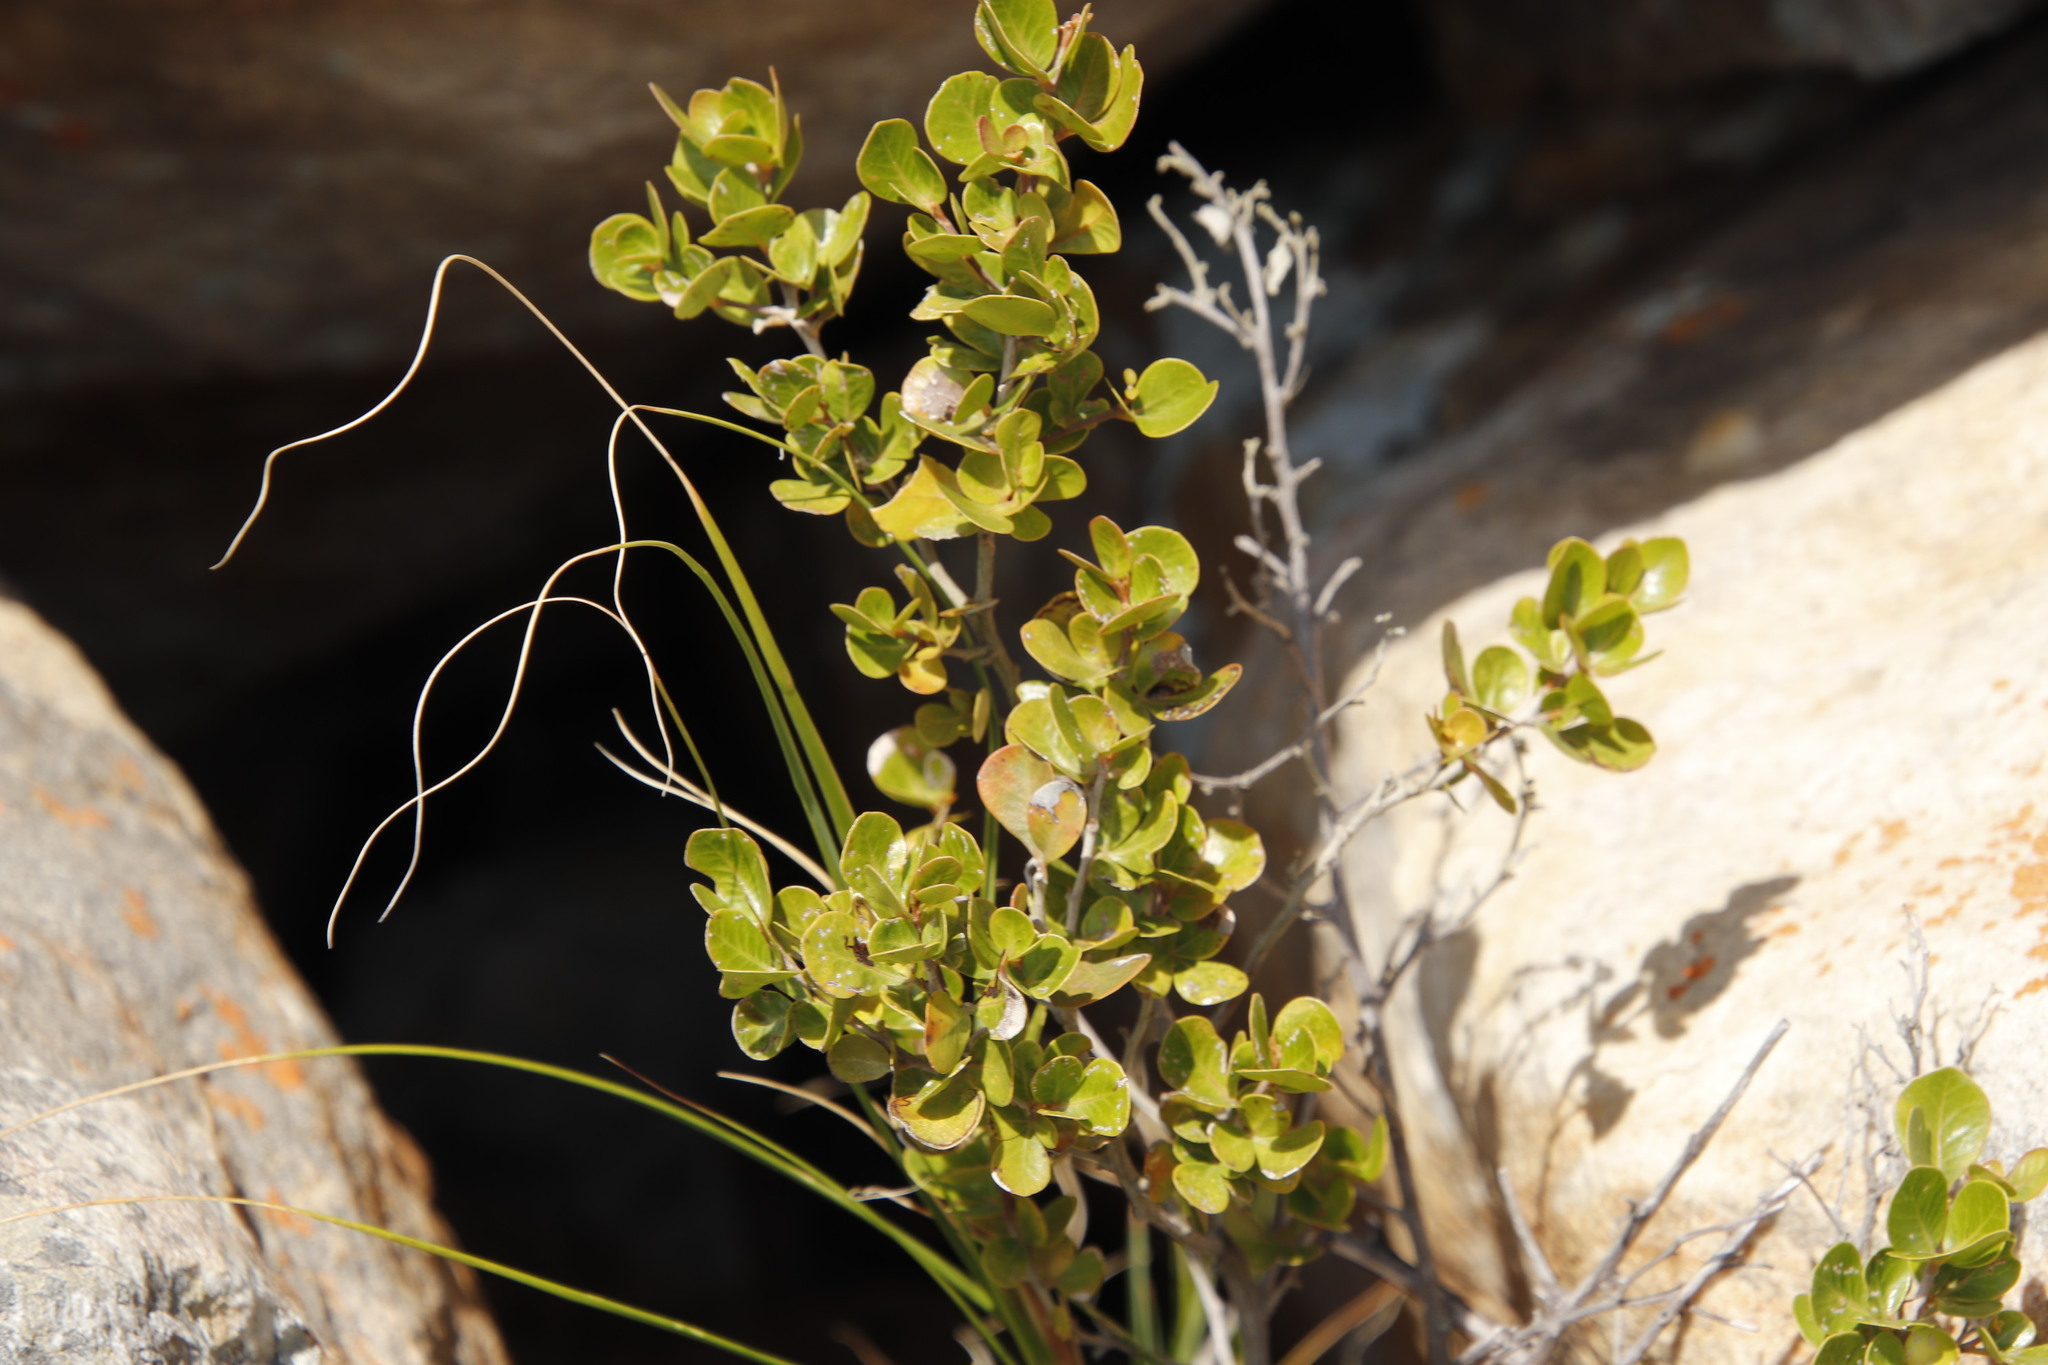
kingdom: Plantae
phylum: Tracheophyta
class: Magnoliopsida
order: Sapindales
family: Anacardiaceae
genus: Searsia
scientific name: Searsia lucida
